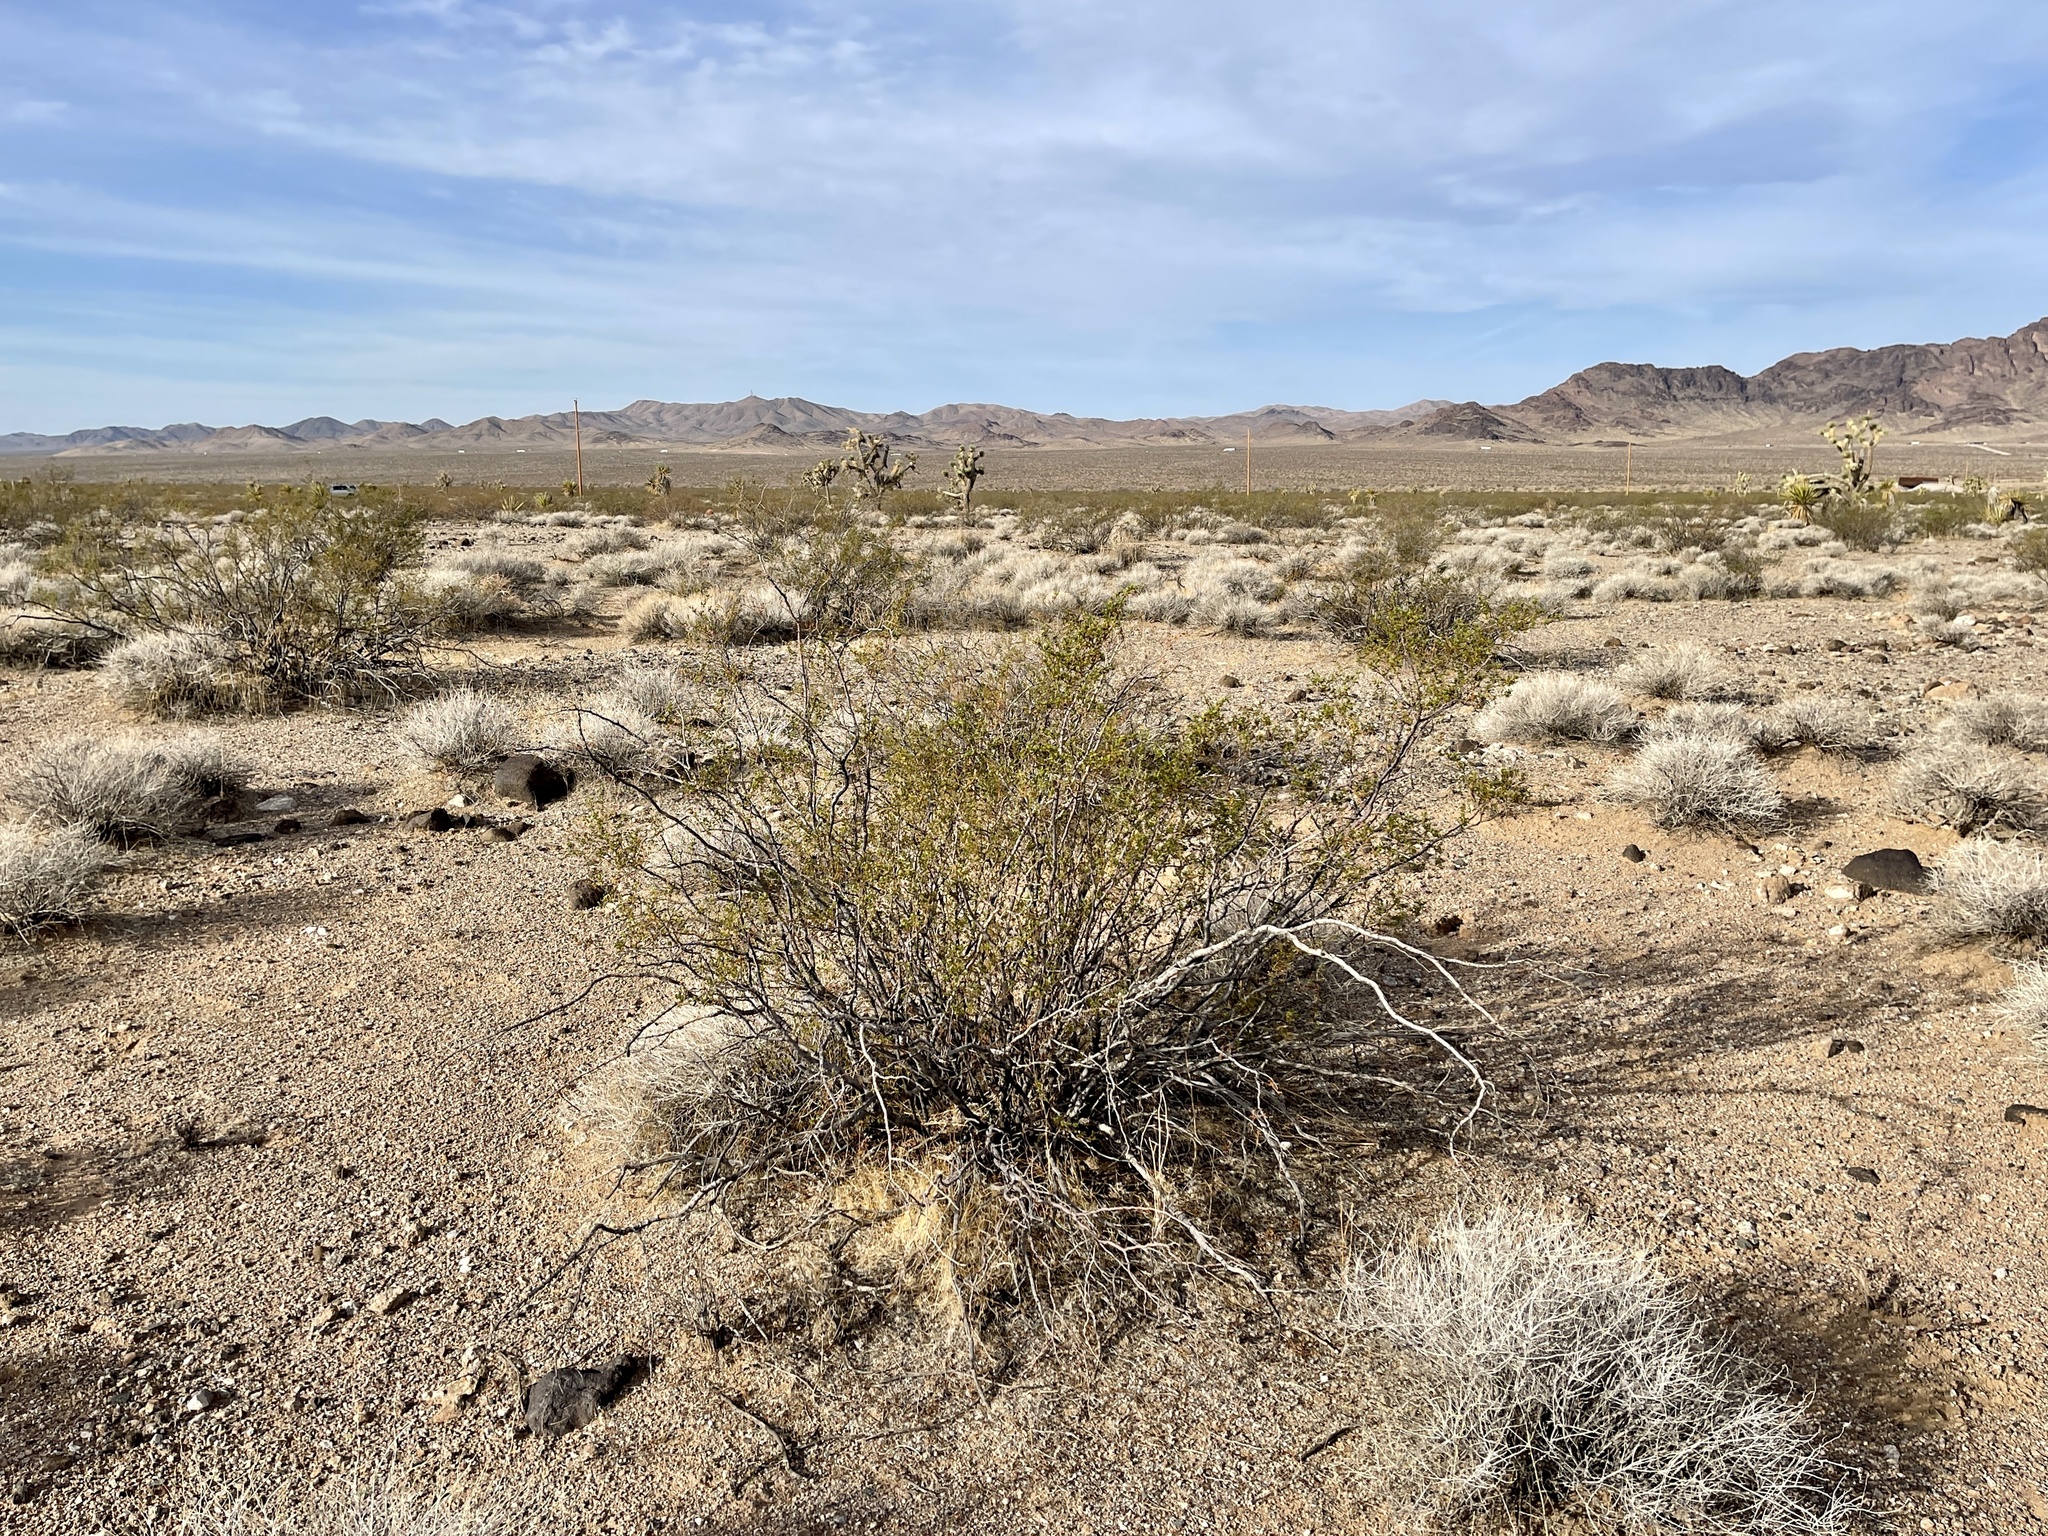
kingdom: Plantae
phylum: Tracheophyta
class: Magnoliopsida
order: Zygophyllales
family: Zygophyllaceae
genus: Larrea
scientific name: Larrea tridentata
